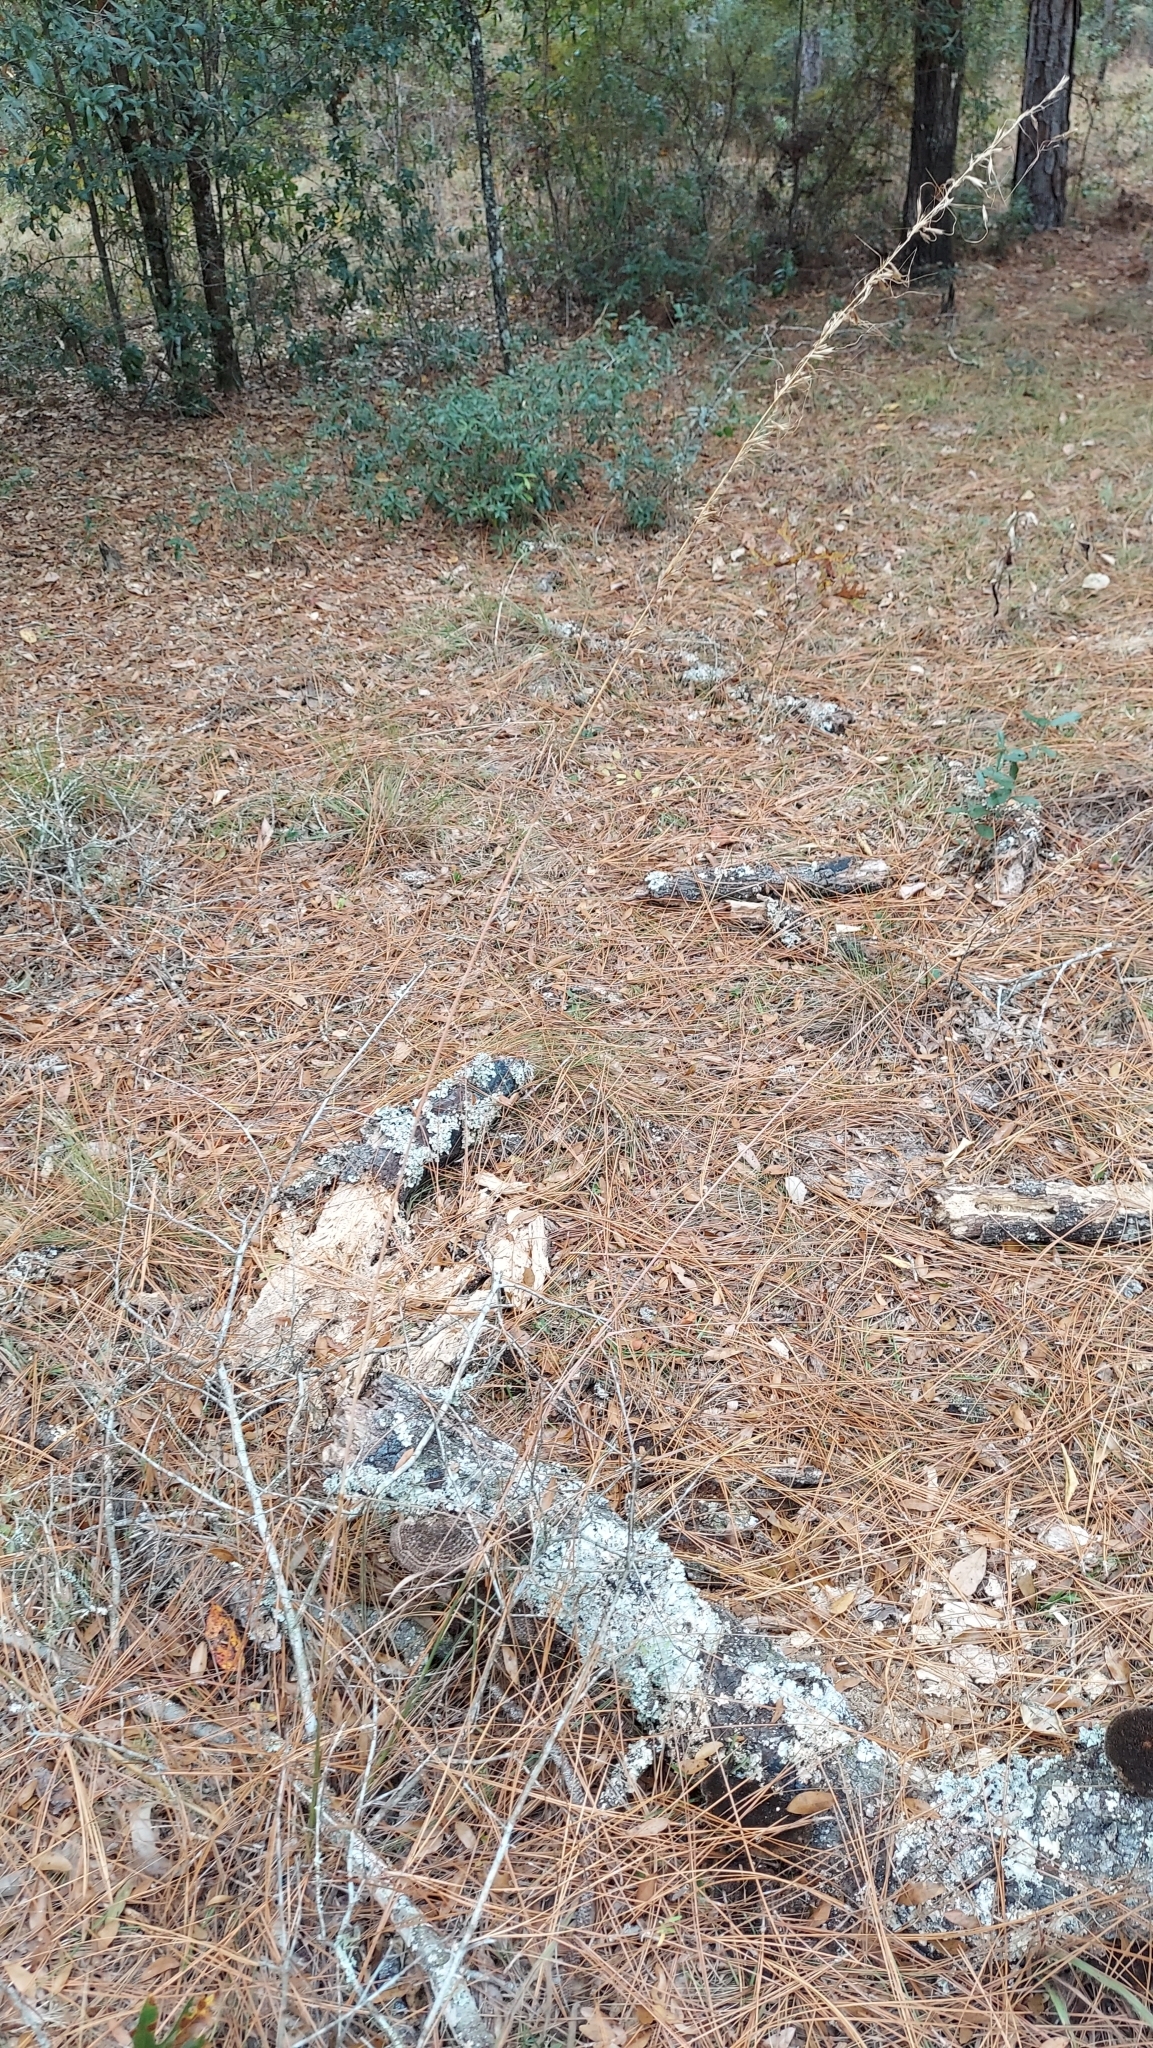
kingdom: Plantae
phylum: Tracheophyta
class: Liliopsida
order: Poales
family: Poaceae
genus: Sorghastrum
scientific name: Sorghastrum secundum
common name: Lopsided indian grass
